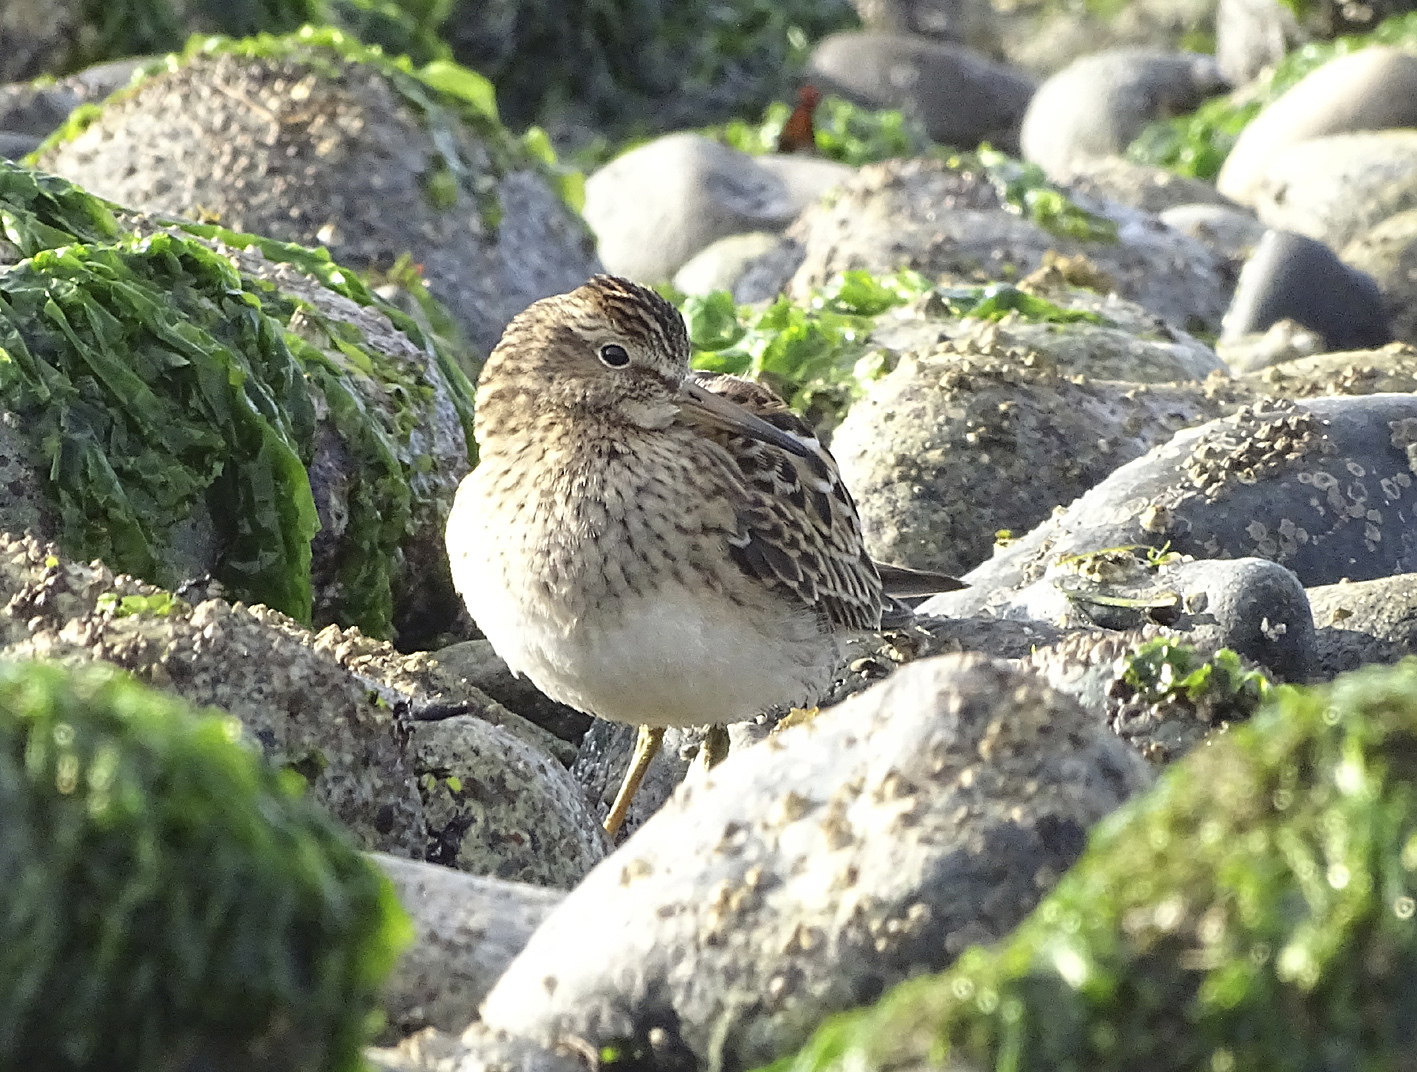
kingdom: Animalia
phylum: Chordata
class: Aves
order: Charadriiformes
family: Scolopacidae
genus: Calidris
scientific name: Calidris melanotos
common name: Pectoral sandpiper
